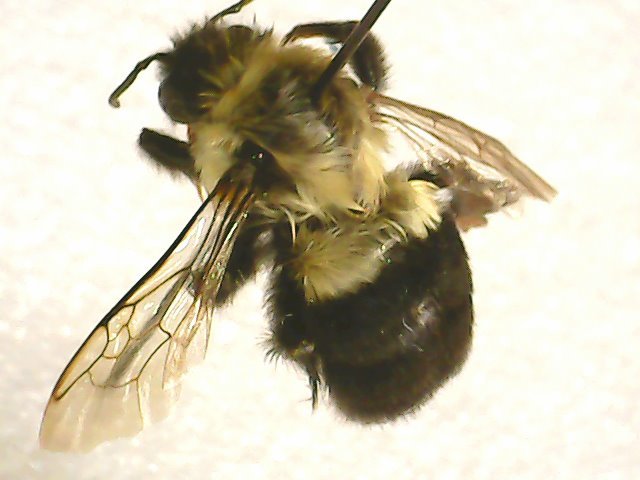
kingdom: Animalia
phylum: Arthropoda
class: Insecta
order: Hymenoptera
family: Apidae
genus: Bombus
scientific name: Bombus impatiens
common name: Common eastern bumble bee
